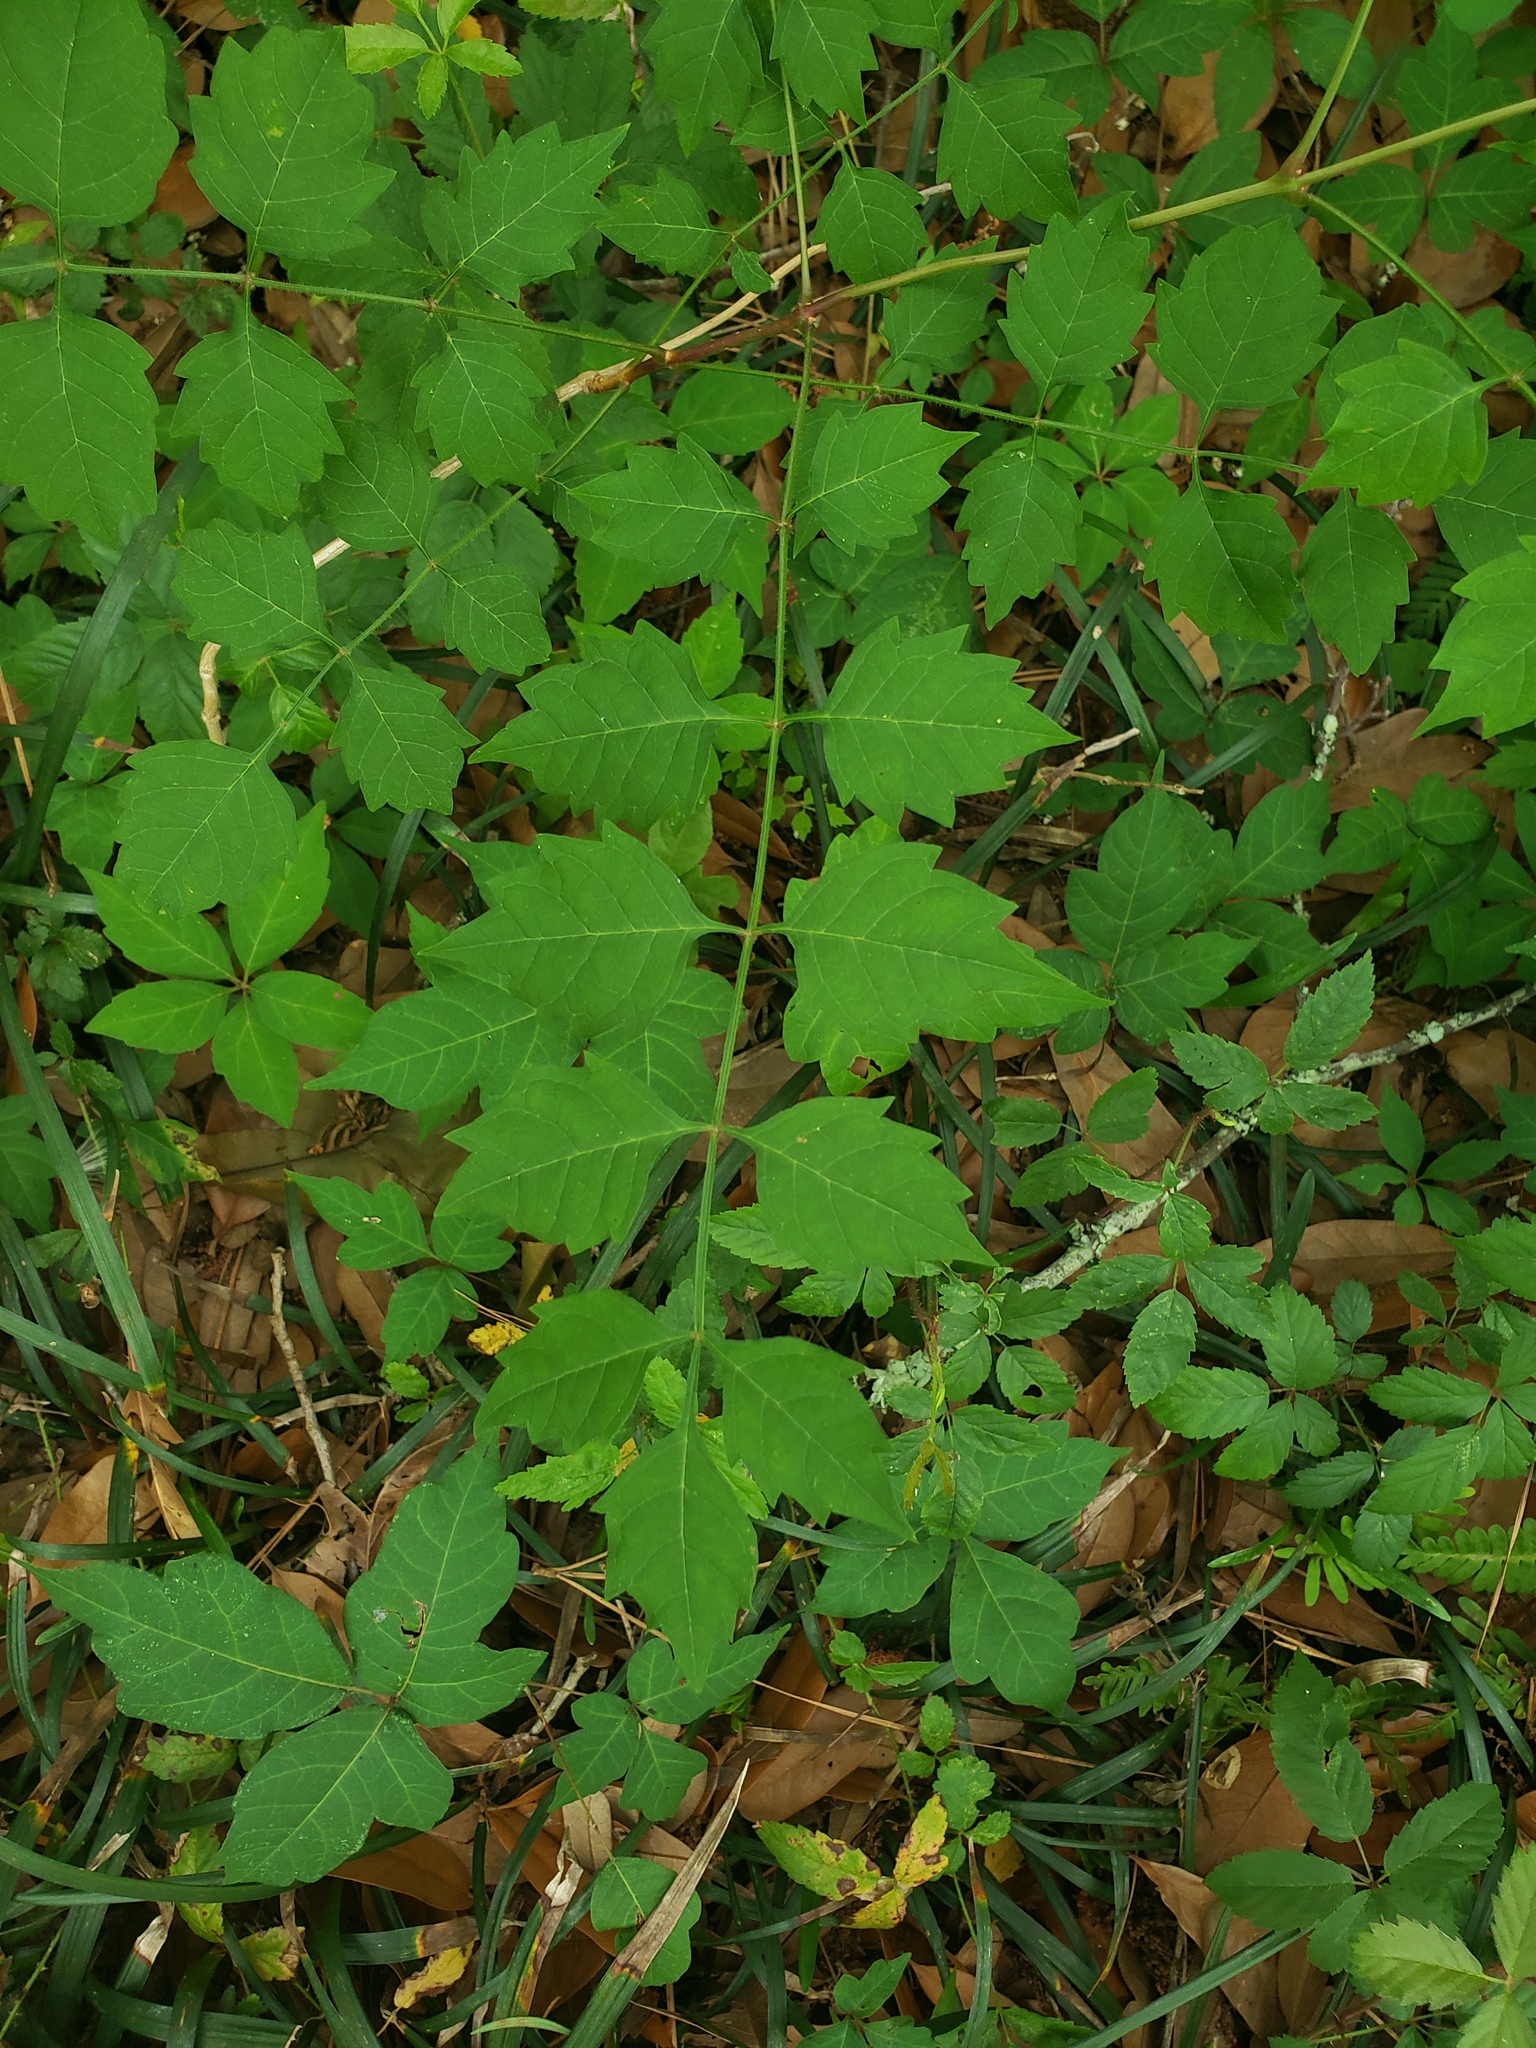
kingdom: Plantae
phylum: Tracheophyta
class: Magnoliopsida
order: Lamiales
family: Bignoniaceae
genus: Campsis
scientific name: Campsis radicans
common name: Trumpet-creeper
